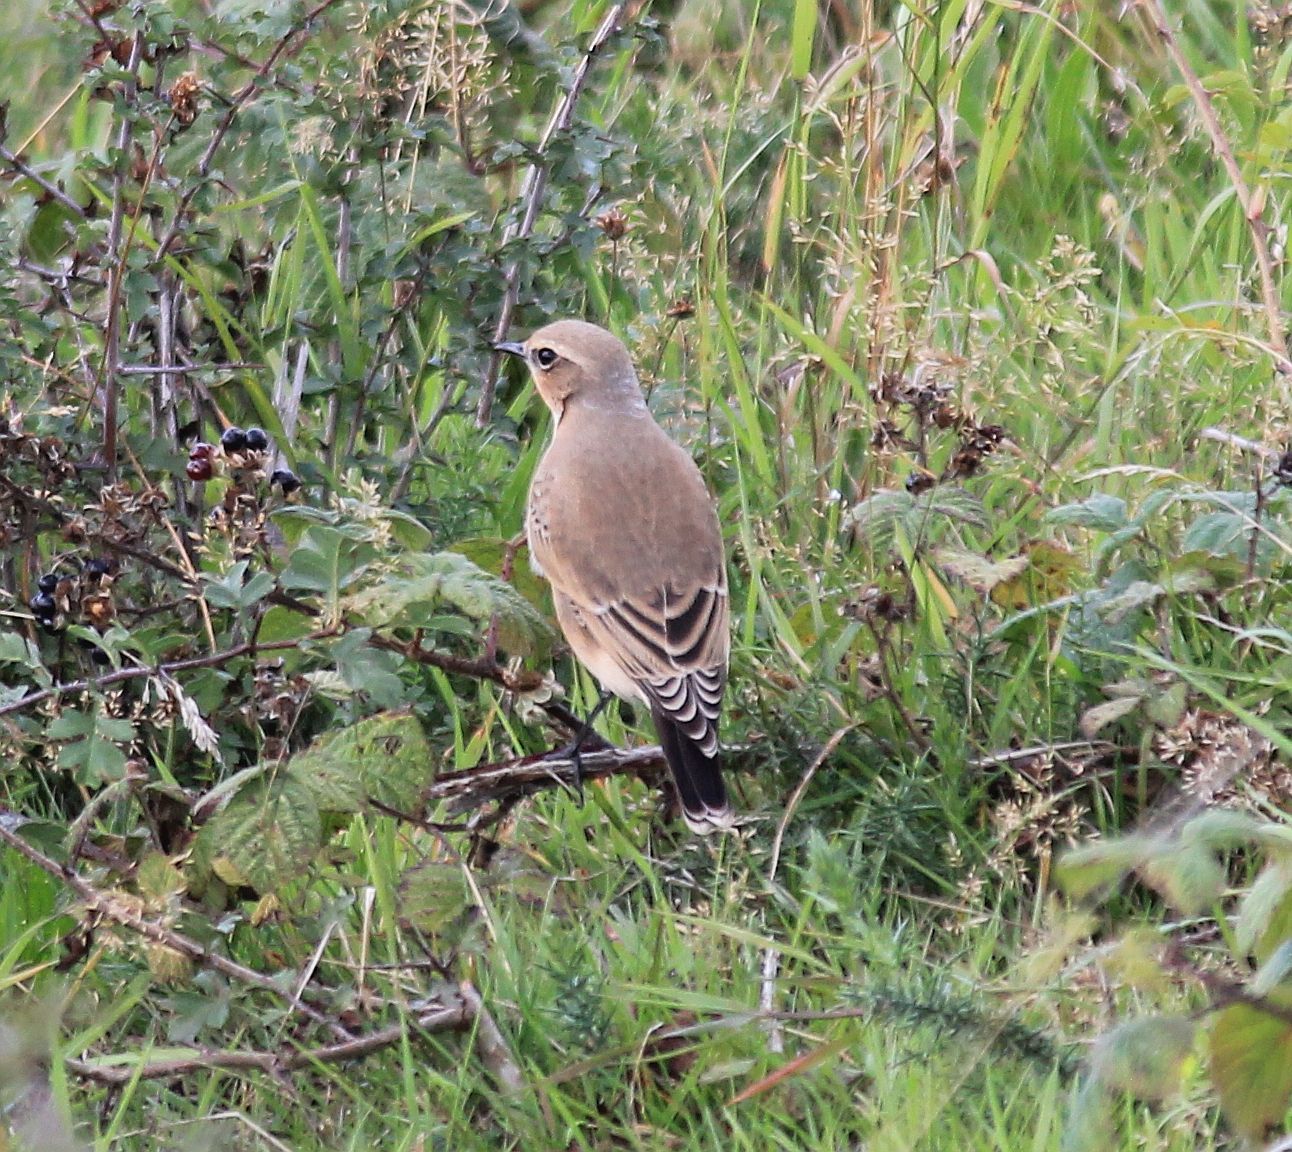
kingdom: Animalia
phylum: Chordata
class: Aves
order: Passeriformes
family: Muscicapidae
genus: Oenanthe
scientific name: Oenanthe oenanthe
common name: Northern wheatear
